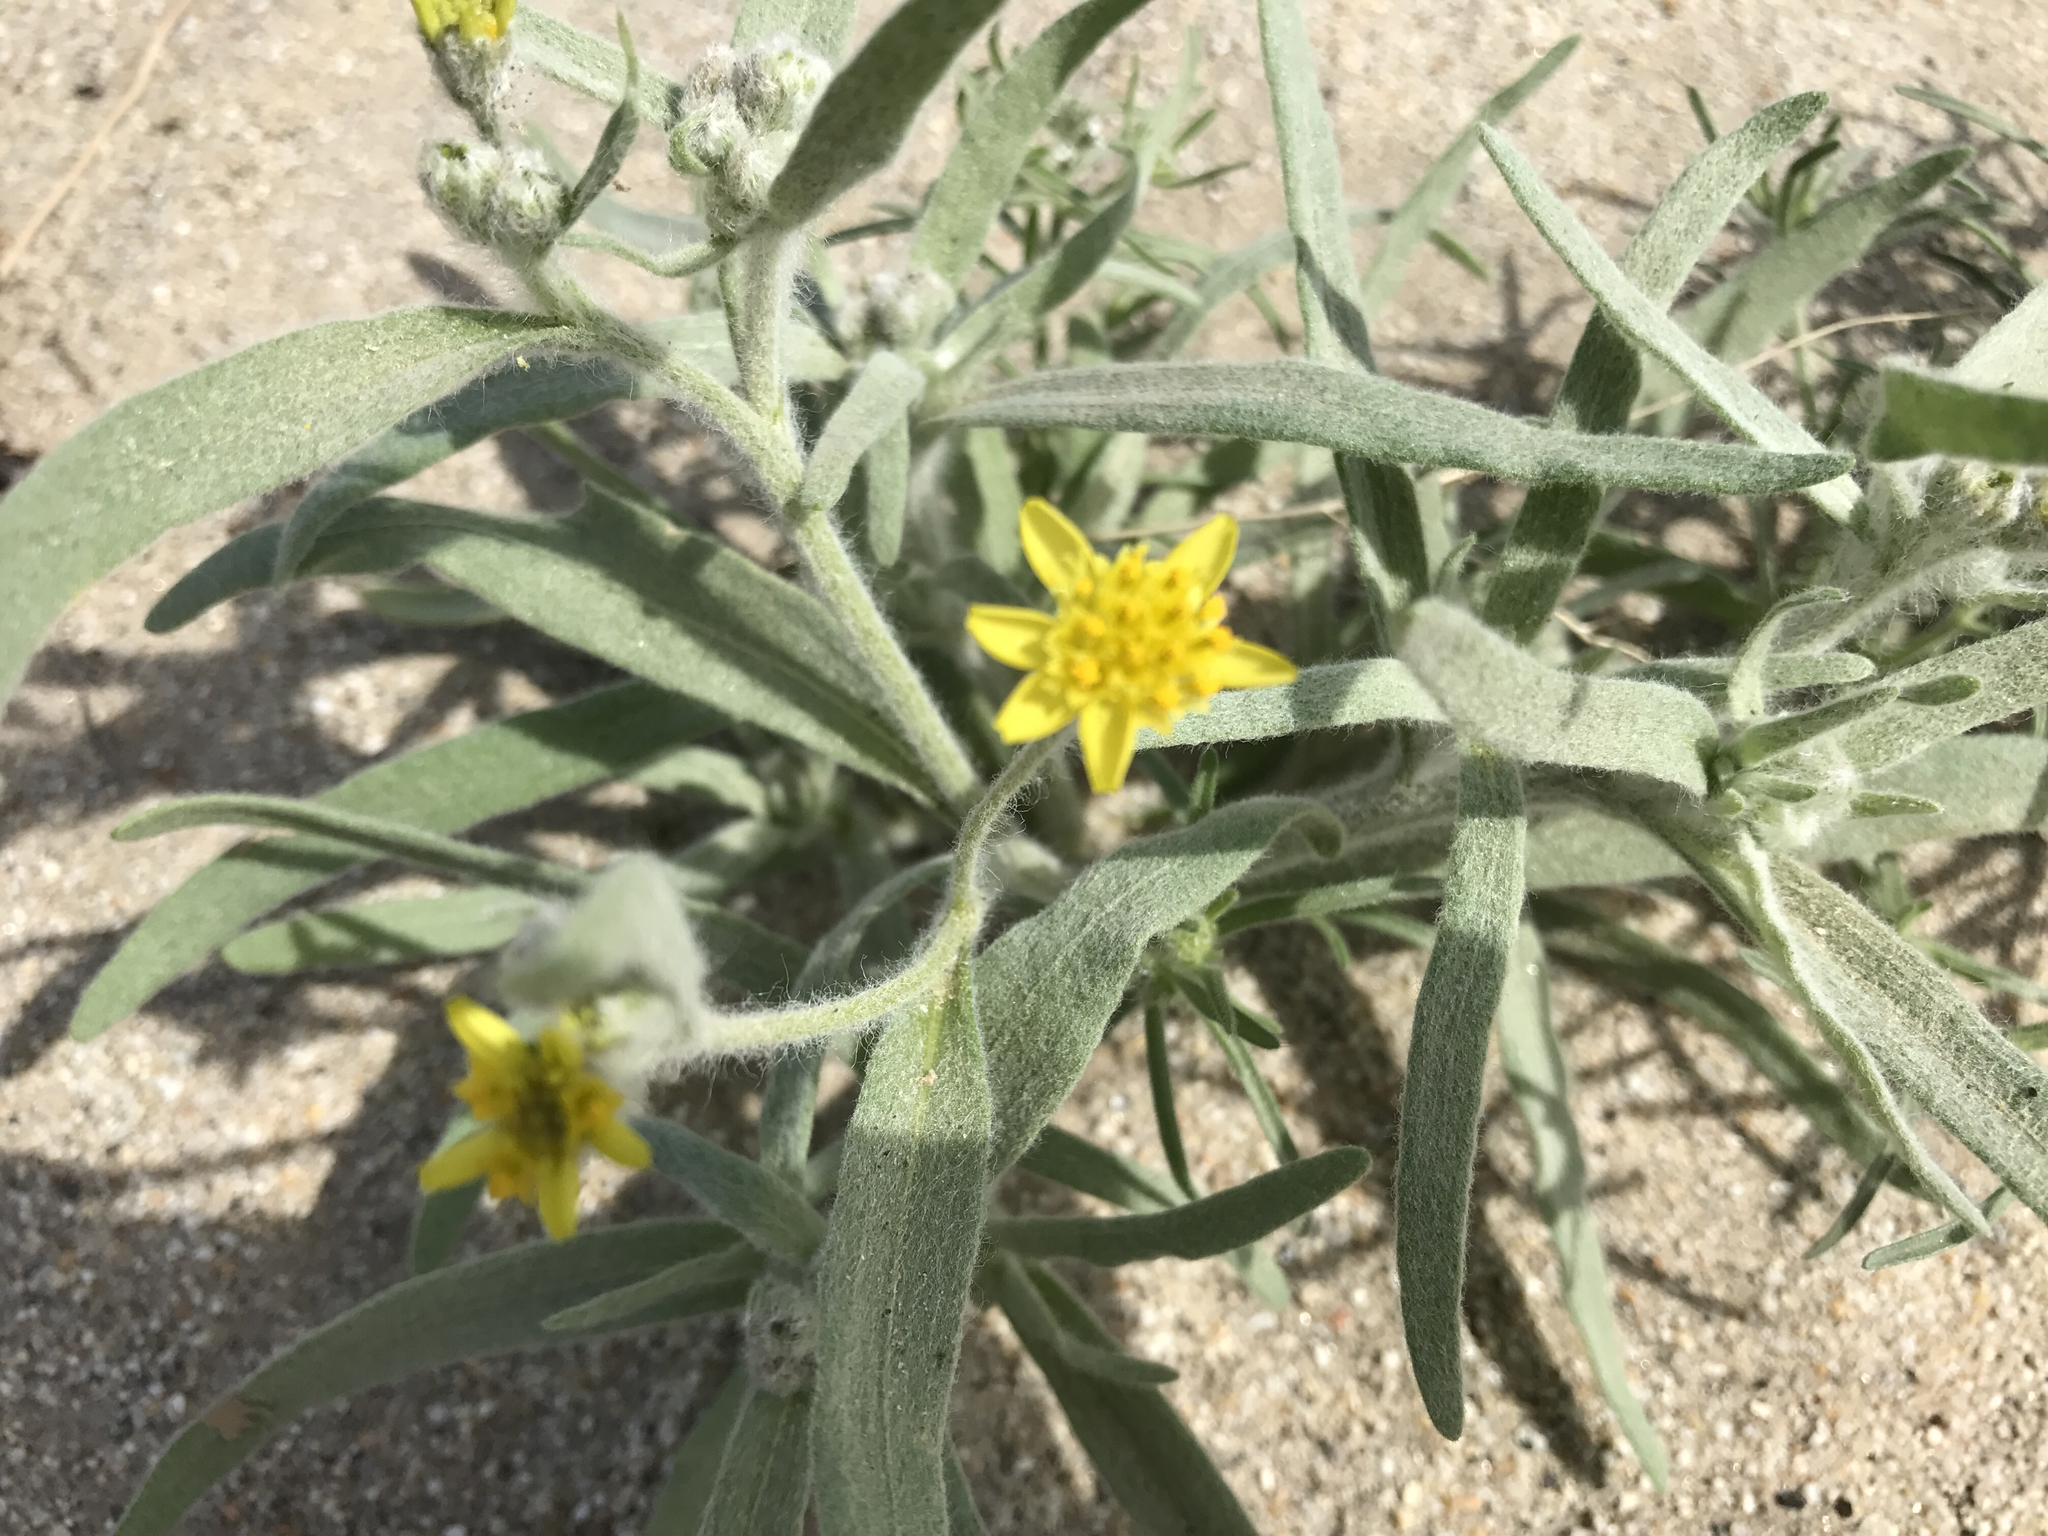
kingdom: Plantae
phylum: Tracheophyta
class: Magnoliopsida
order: Asterales
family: Asteraceae
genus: Baileya
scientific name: Baileya pauciradiata
